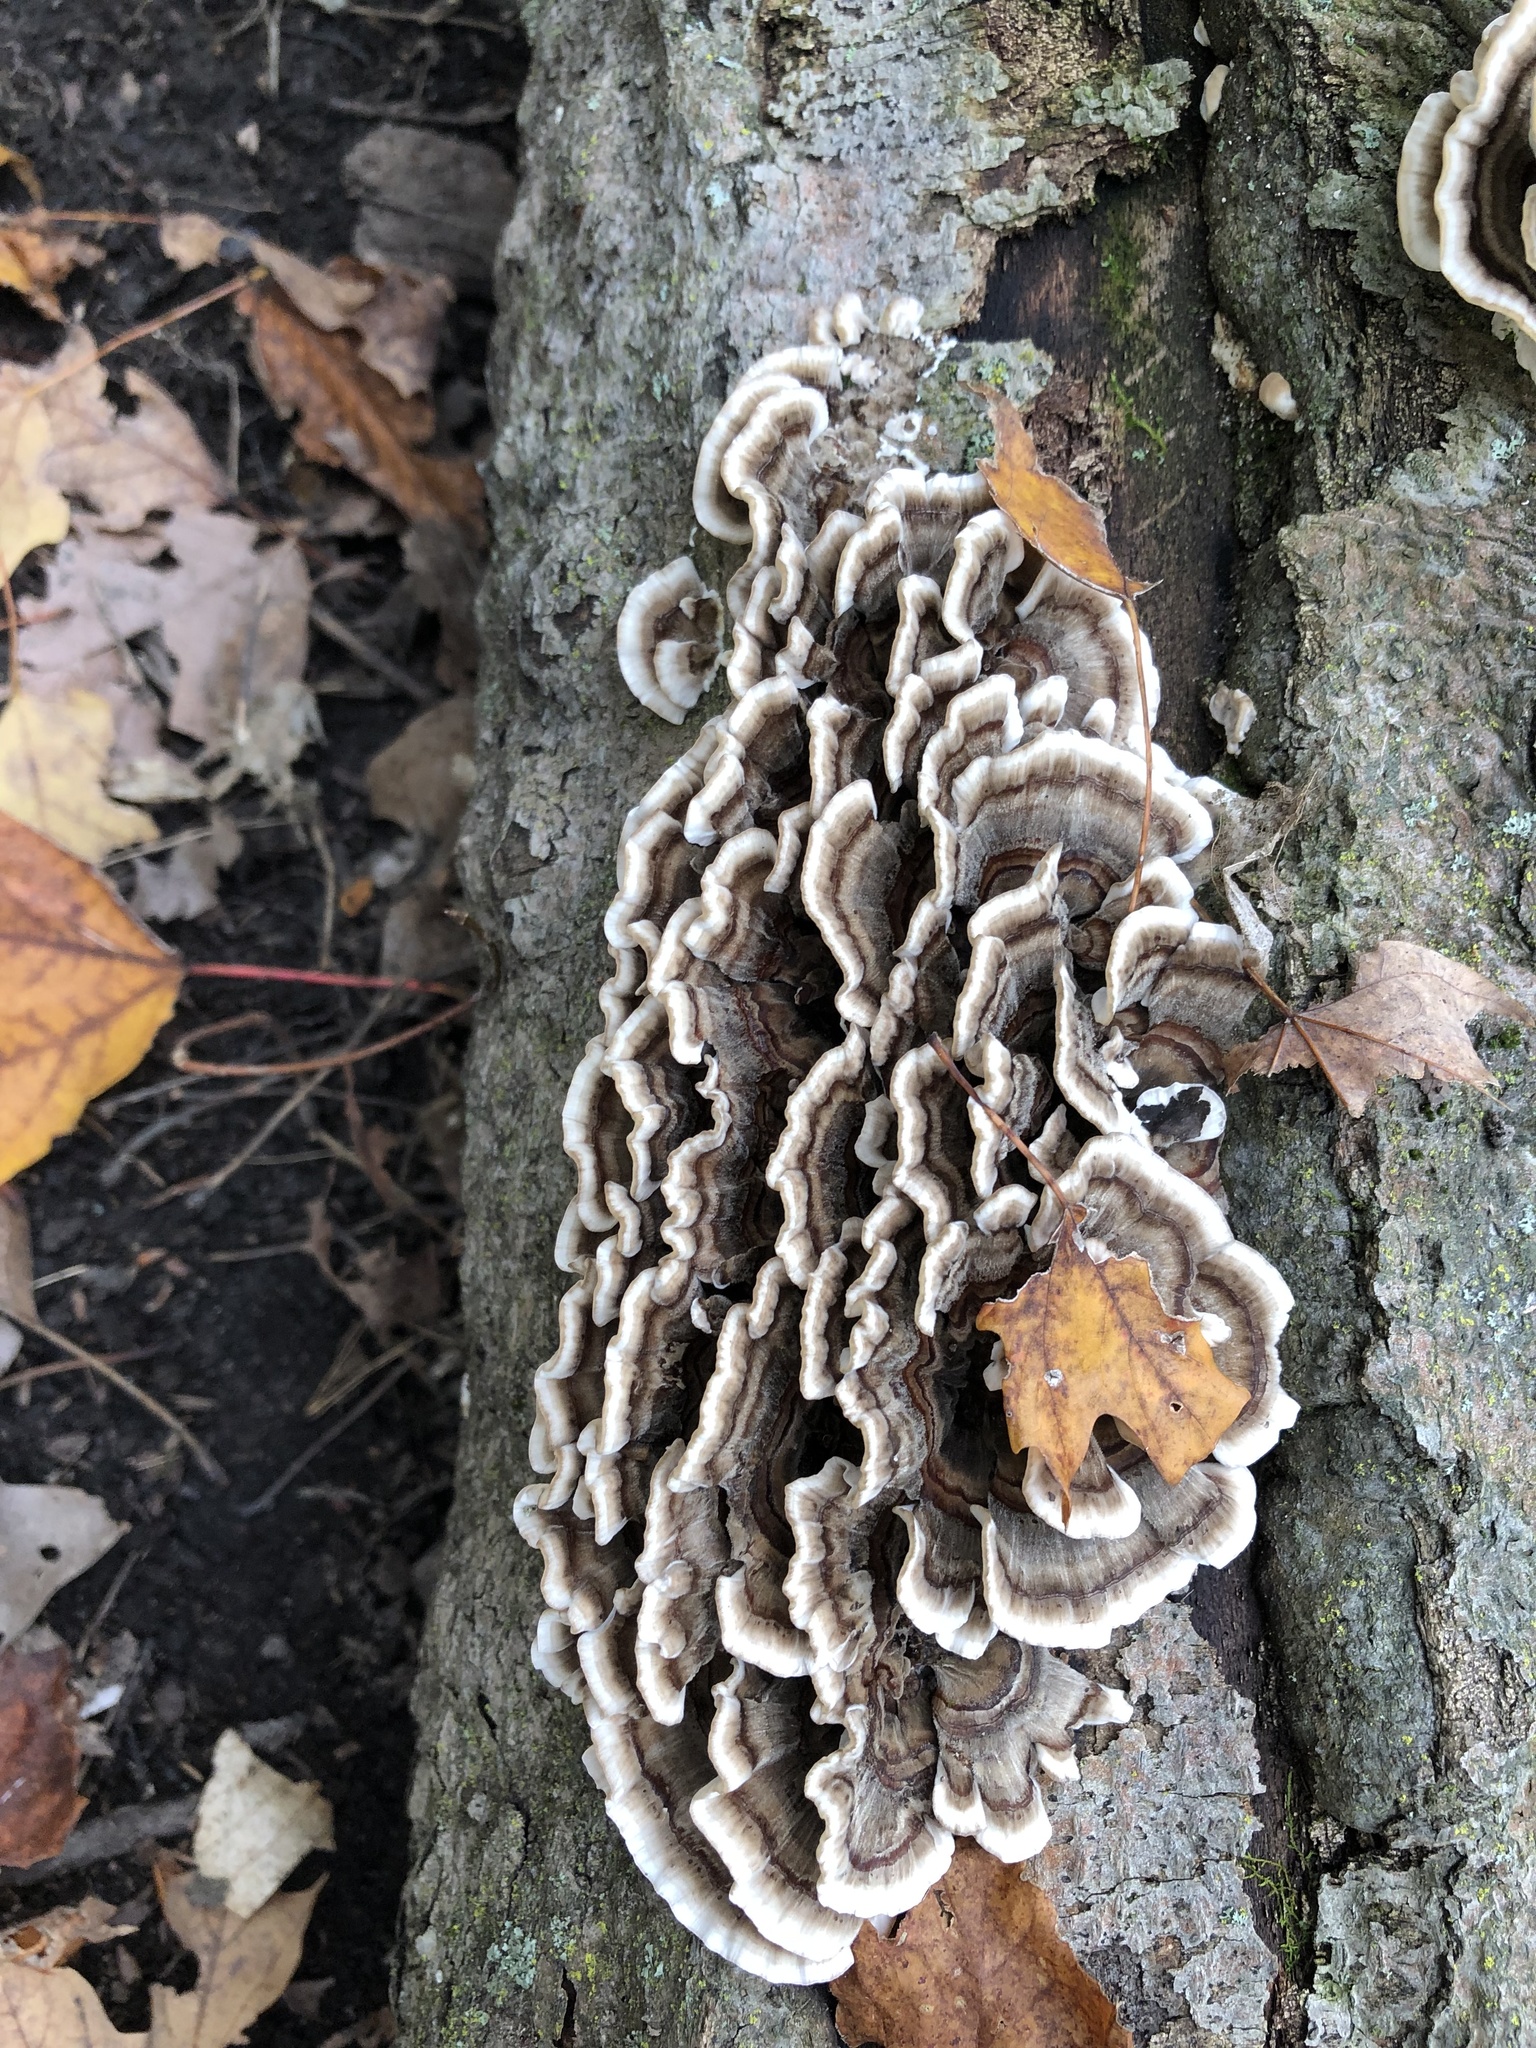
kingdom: Fungi
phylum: Basidiomycota
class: Agaricomycetes
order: Polyporales
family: Polyporaceae
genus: Trametes
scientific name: Trametes versicolor
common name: Turkeytail
